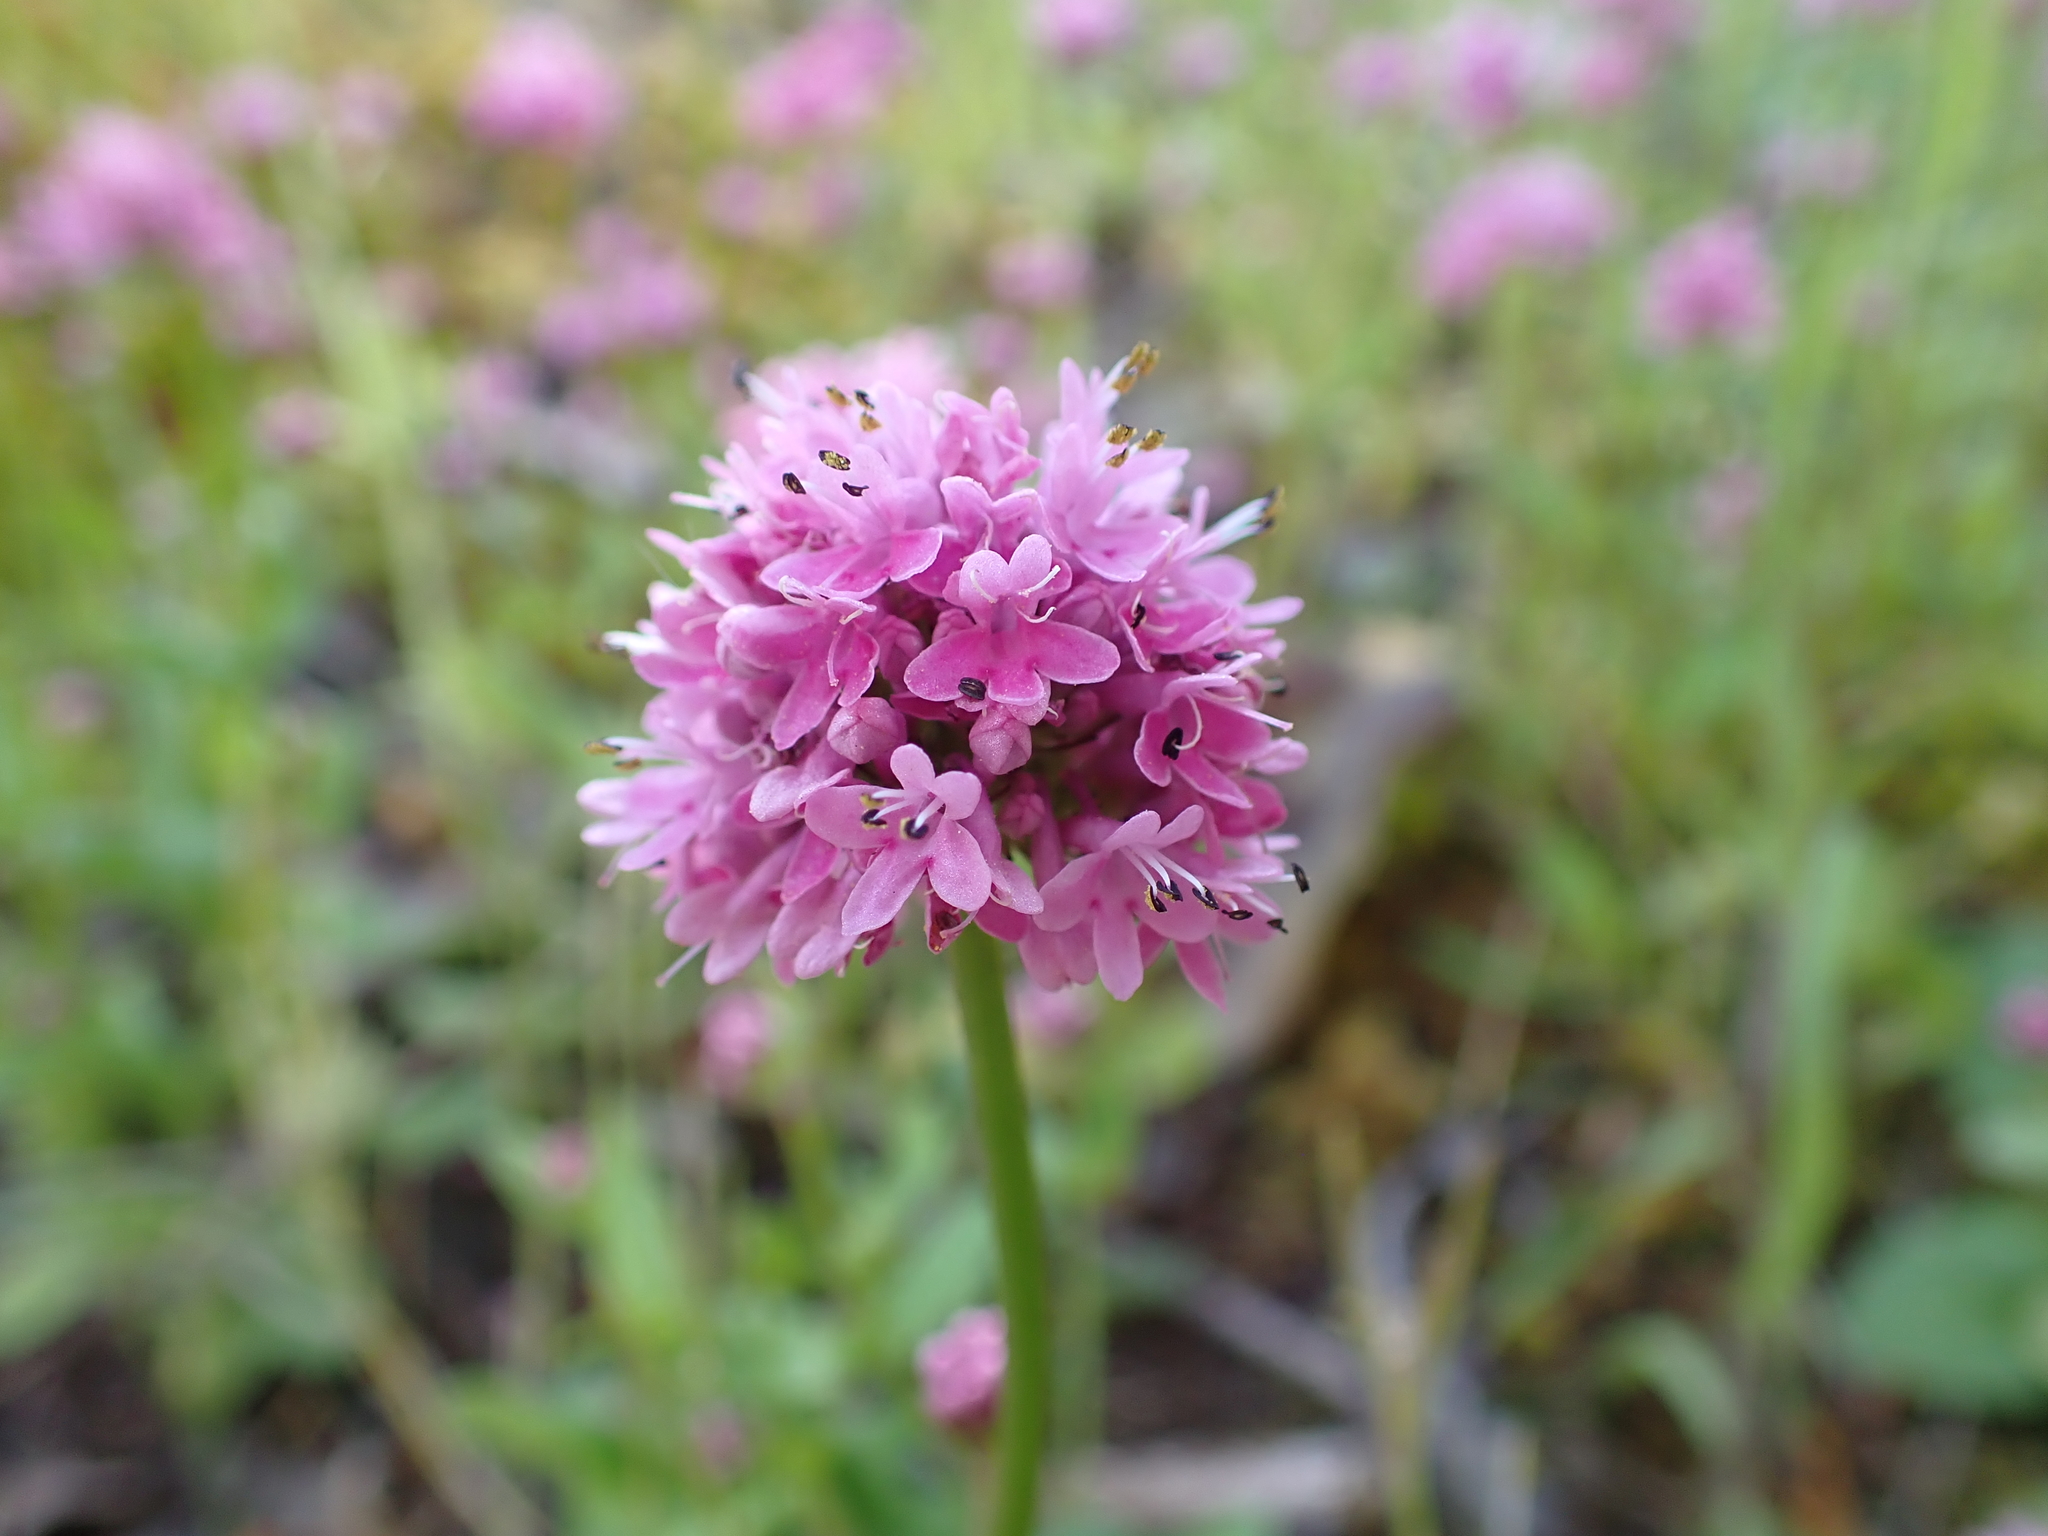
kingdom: Plantae
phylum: Tracheophyta
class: Magnoliopsida
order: Dipsacales
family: Caprifoliaceae
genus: Plectritis
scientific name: Plectritis congesta
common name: Pink plectritis
